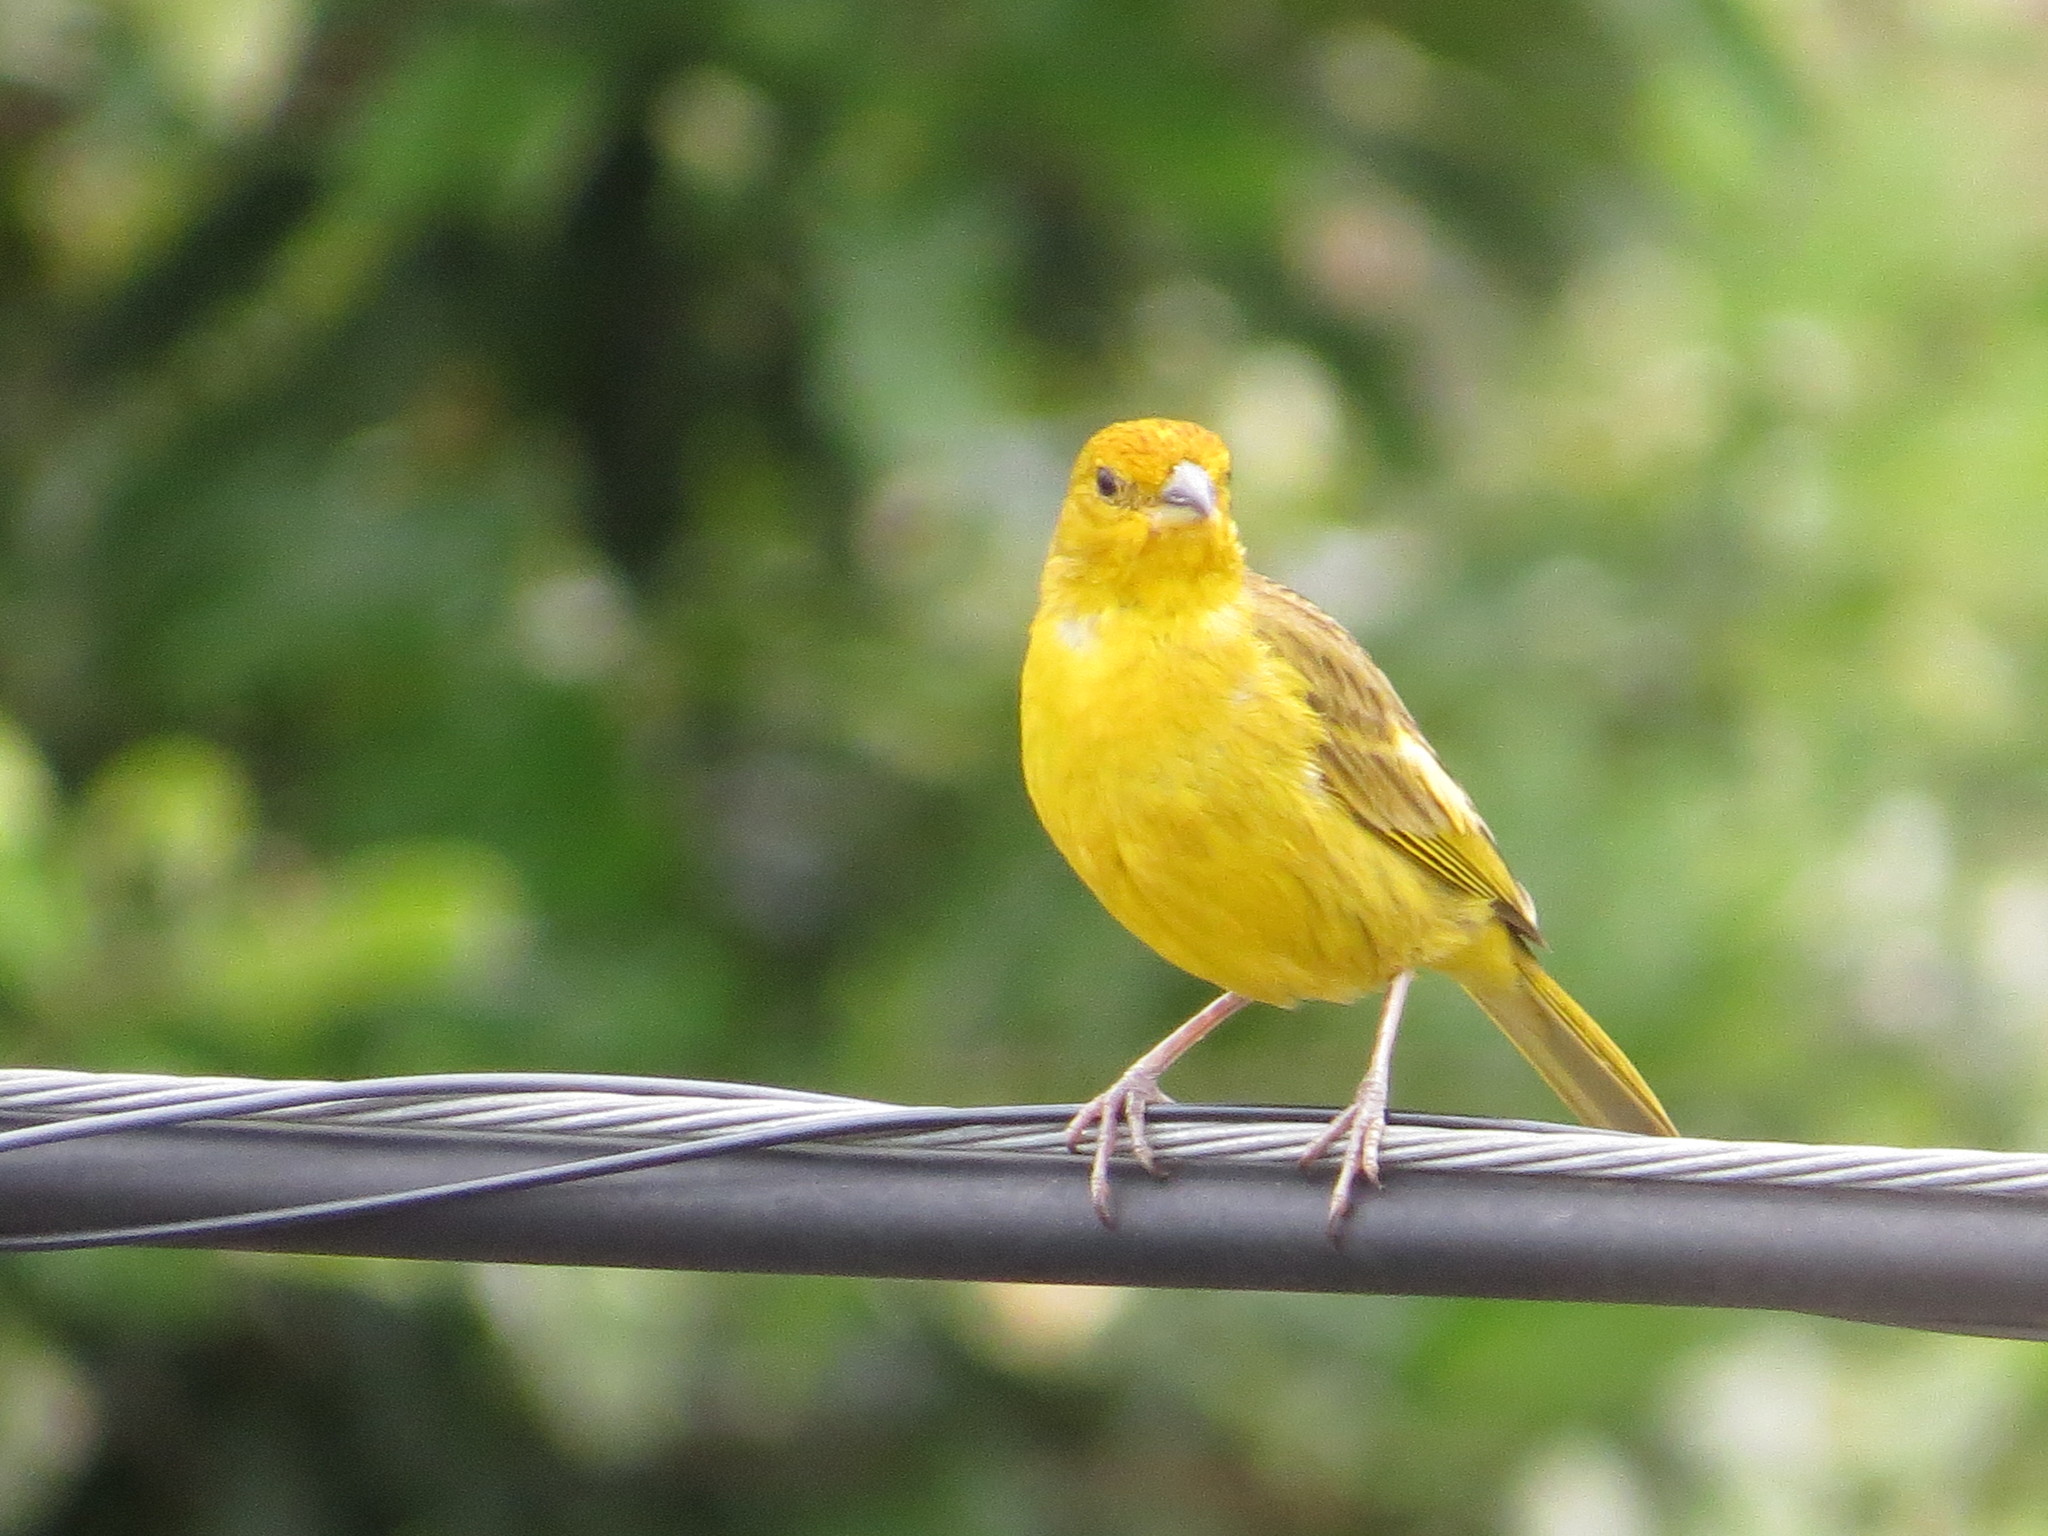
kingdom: Animalia
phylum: Chordata
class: Aves
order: Passeriformes
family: Thraupidae
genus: Sicalis
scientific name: Sicalis flaveola
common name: Saffron finch
